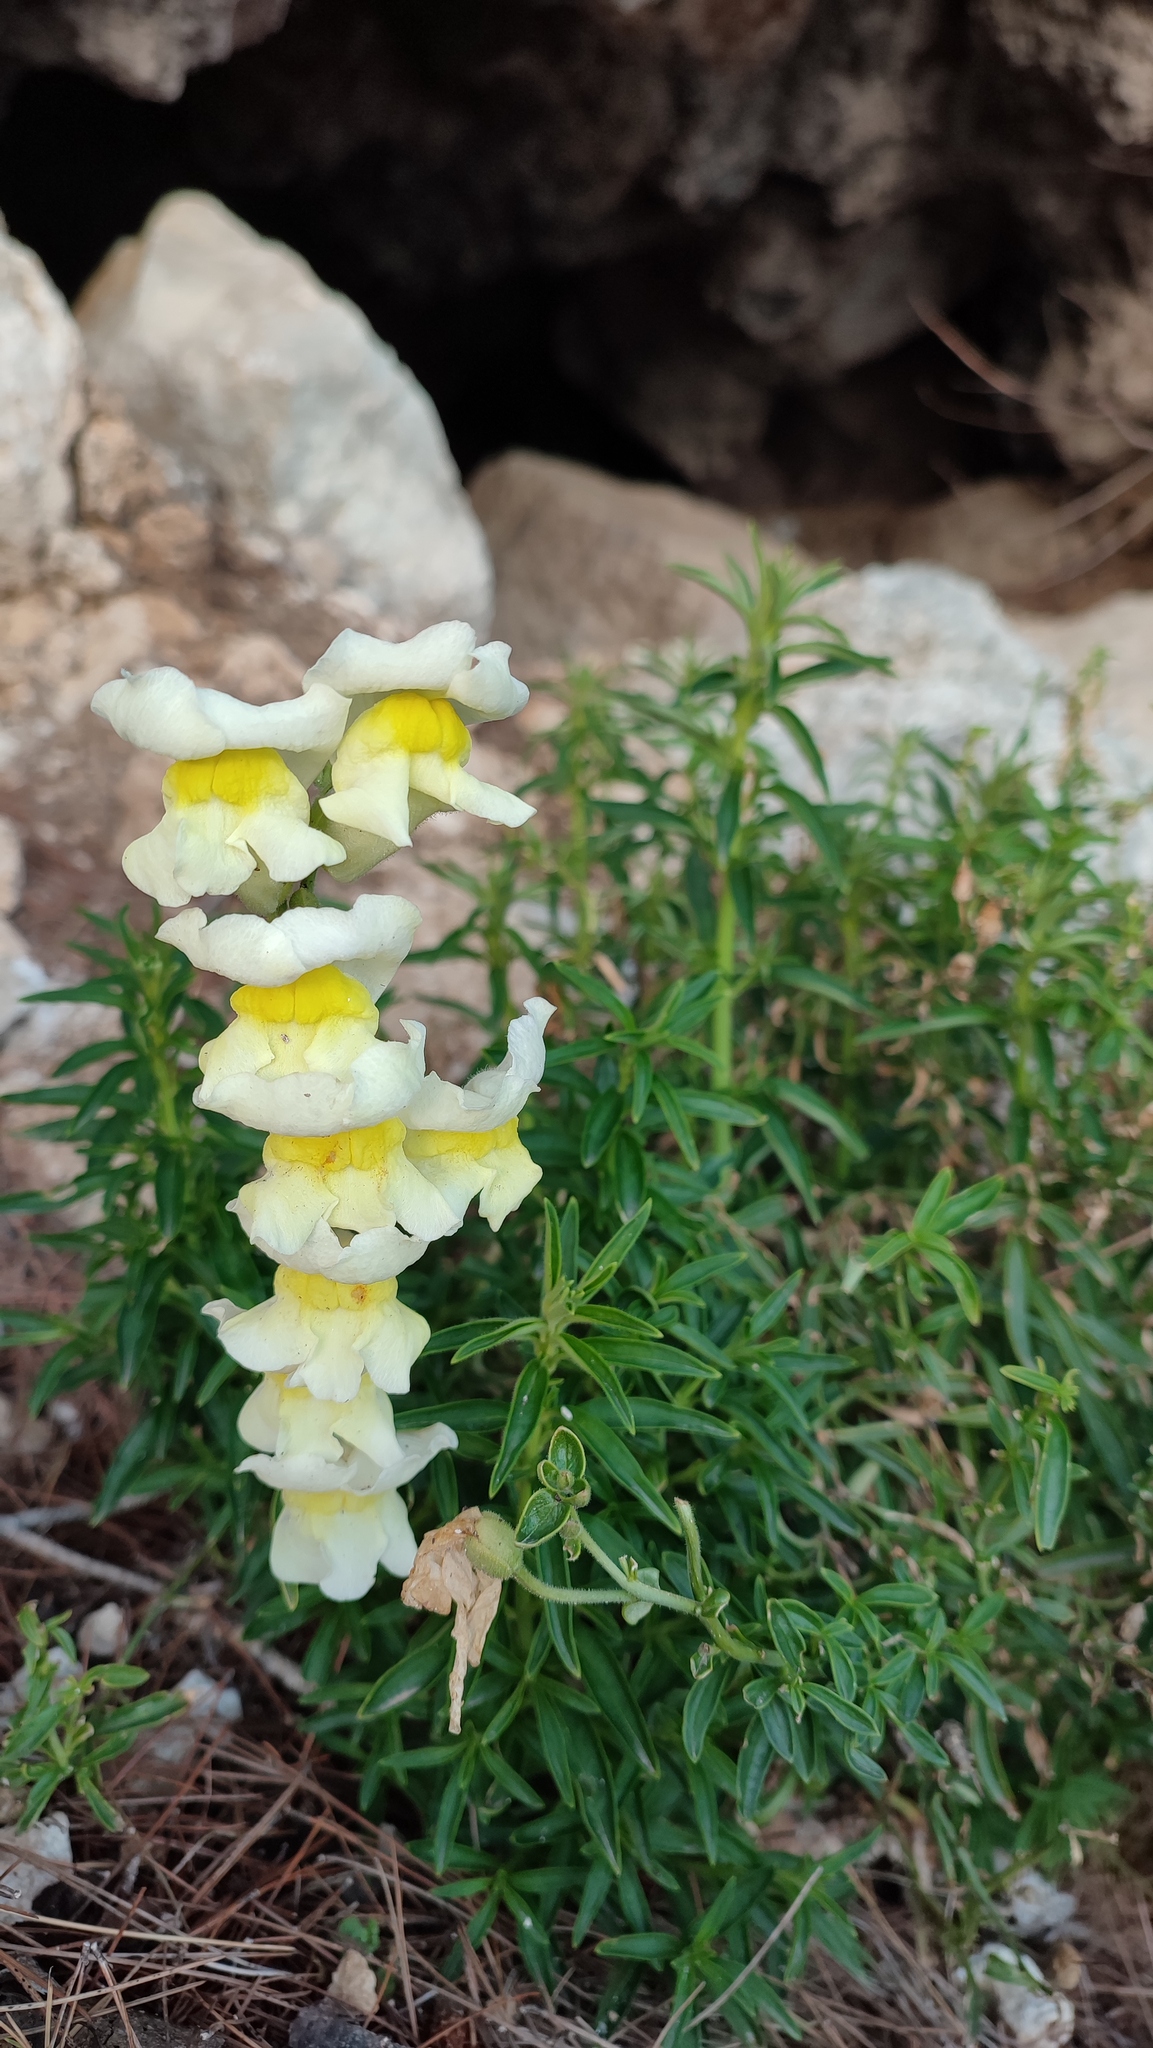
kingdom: Plantae
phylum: Tracheophyta
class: Magnoliopsida
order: Lamiales
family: Plantaginaceae
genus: Antirrhinum
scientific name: Antirrhinum majus
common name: Snapdragon
